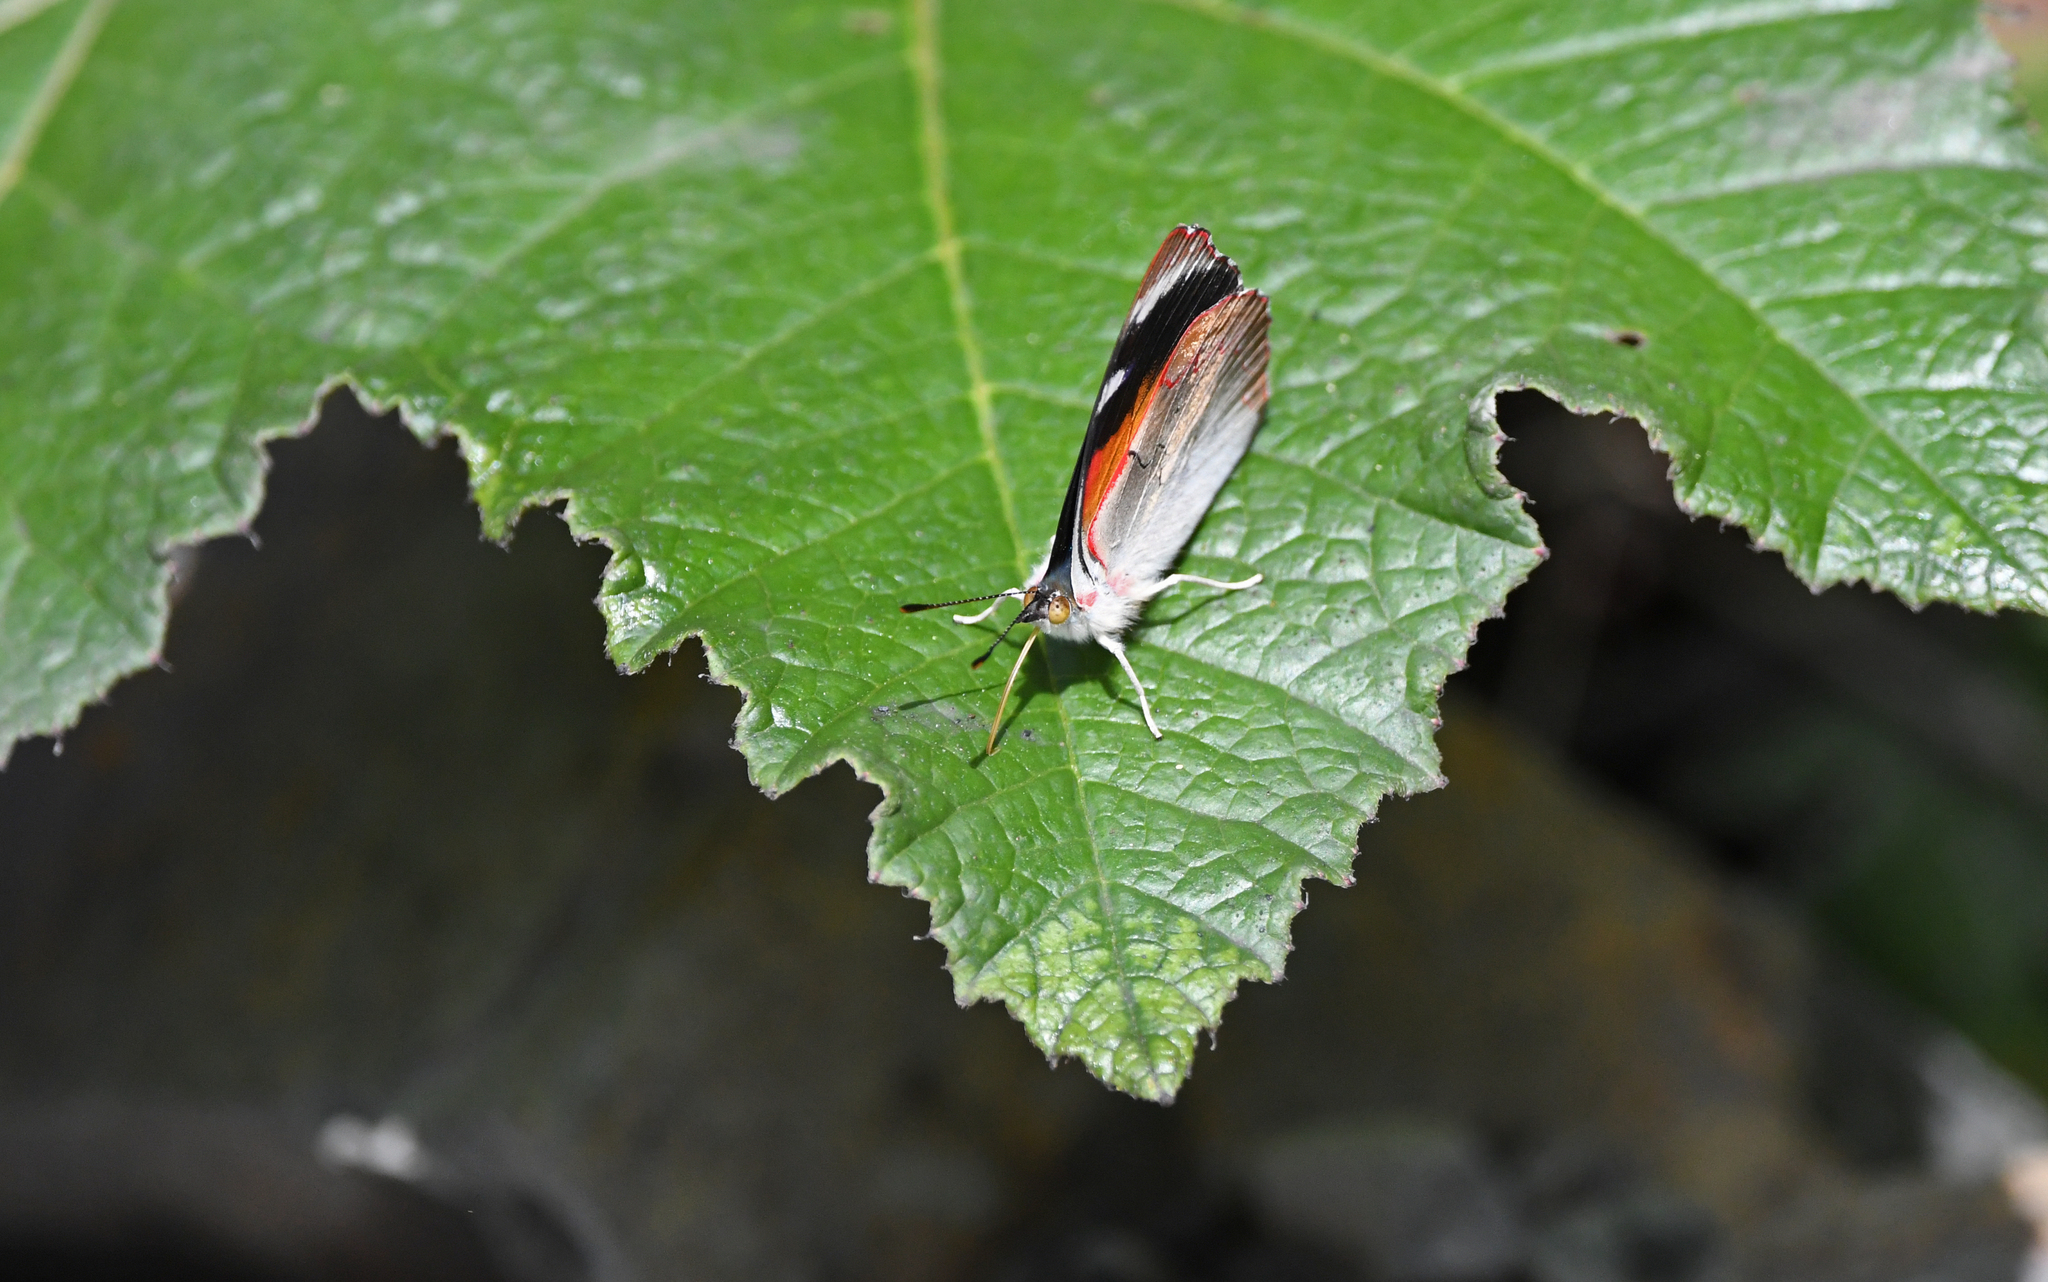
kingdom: Animalia
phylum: Arthropoda
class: Insecta
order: Lepidoptera
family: Nymphalidae
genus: Perisama
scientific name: Perisama calamis
